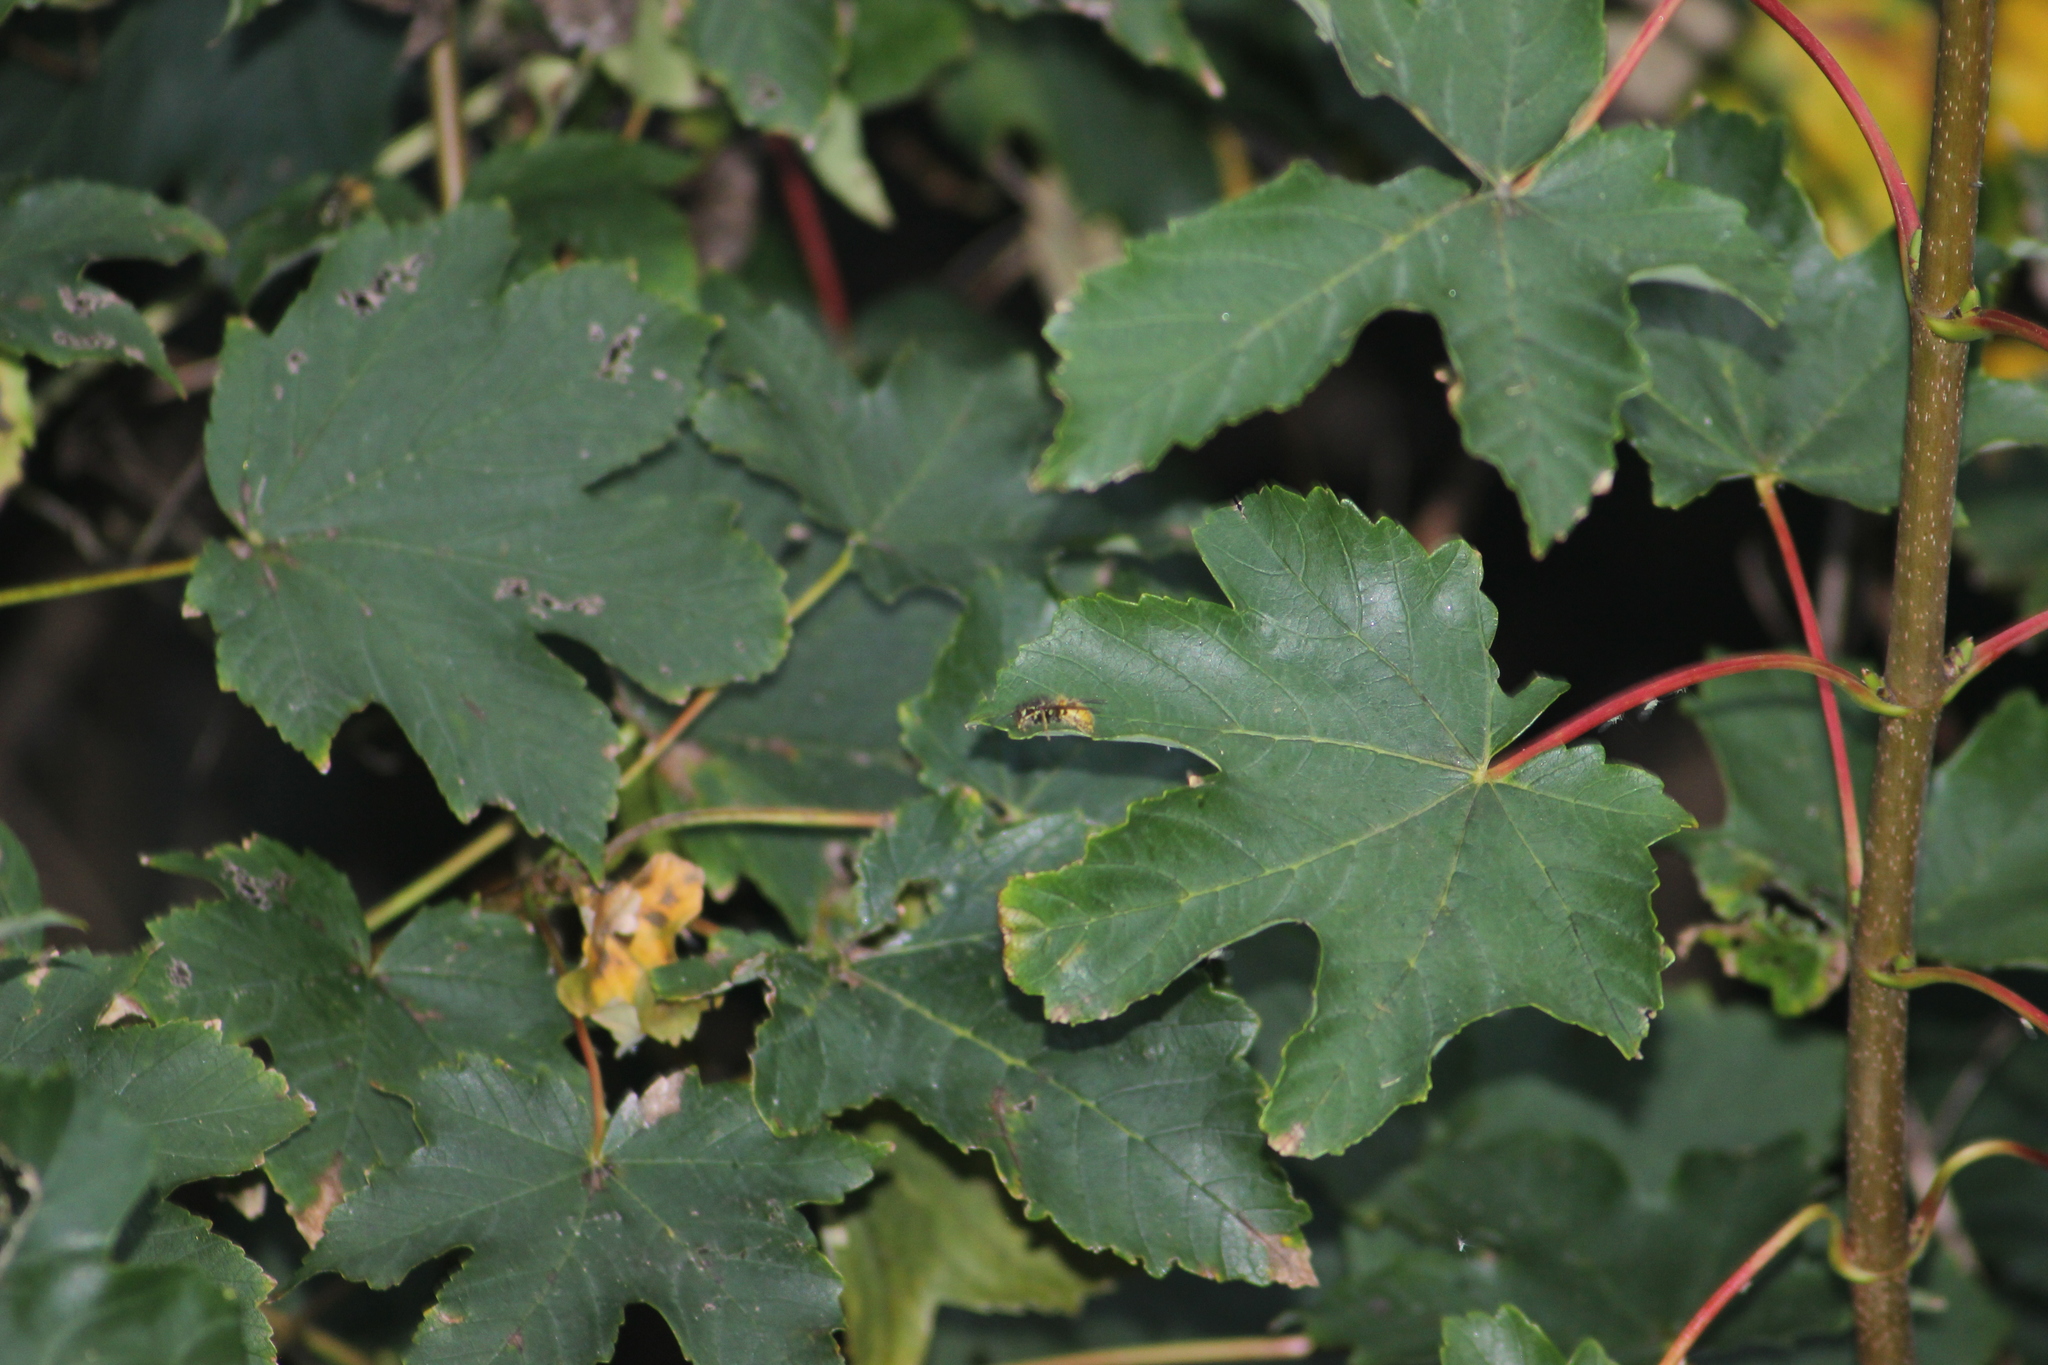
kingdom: Animalia
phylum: Arthropoda
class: Insecta
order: Hymenoptera
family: Vespidae
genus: Vespula
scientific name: Vespula
